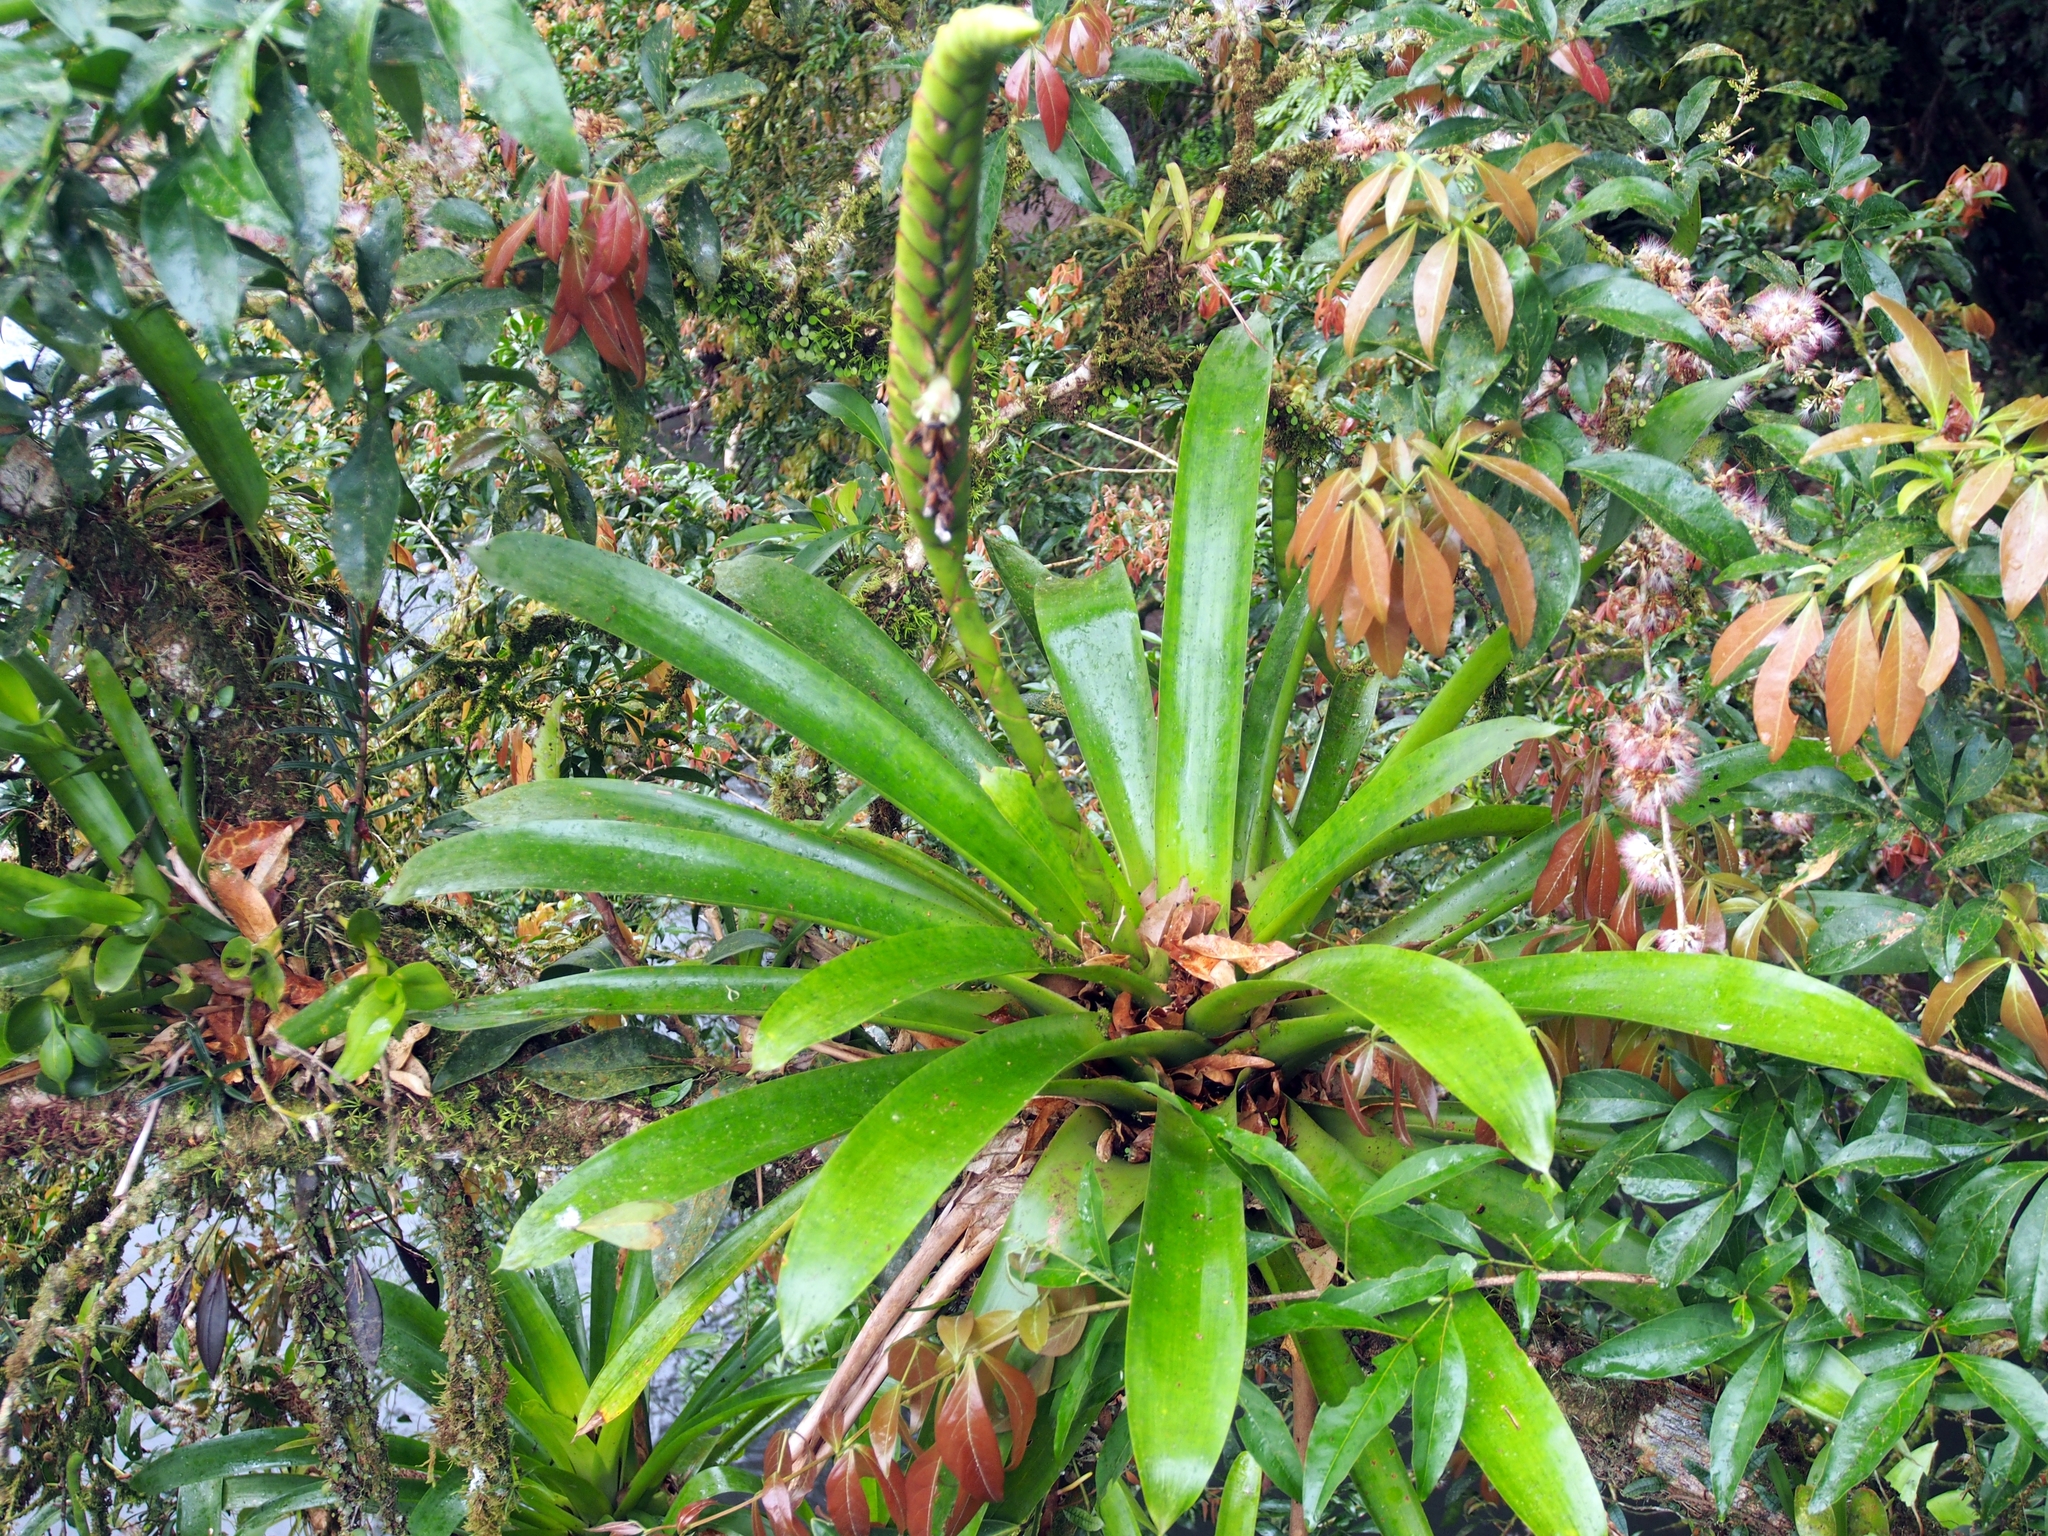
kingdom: Plantae
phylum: Tracheophyta
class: Liliopsida
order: Poales
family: Bromeliaceae
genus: Werauhia
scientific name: Werauhia gladioliflora
